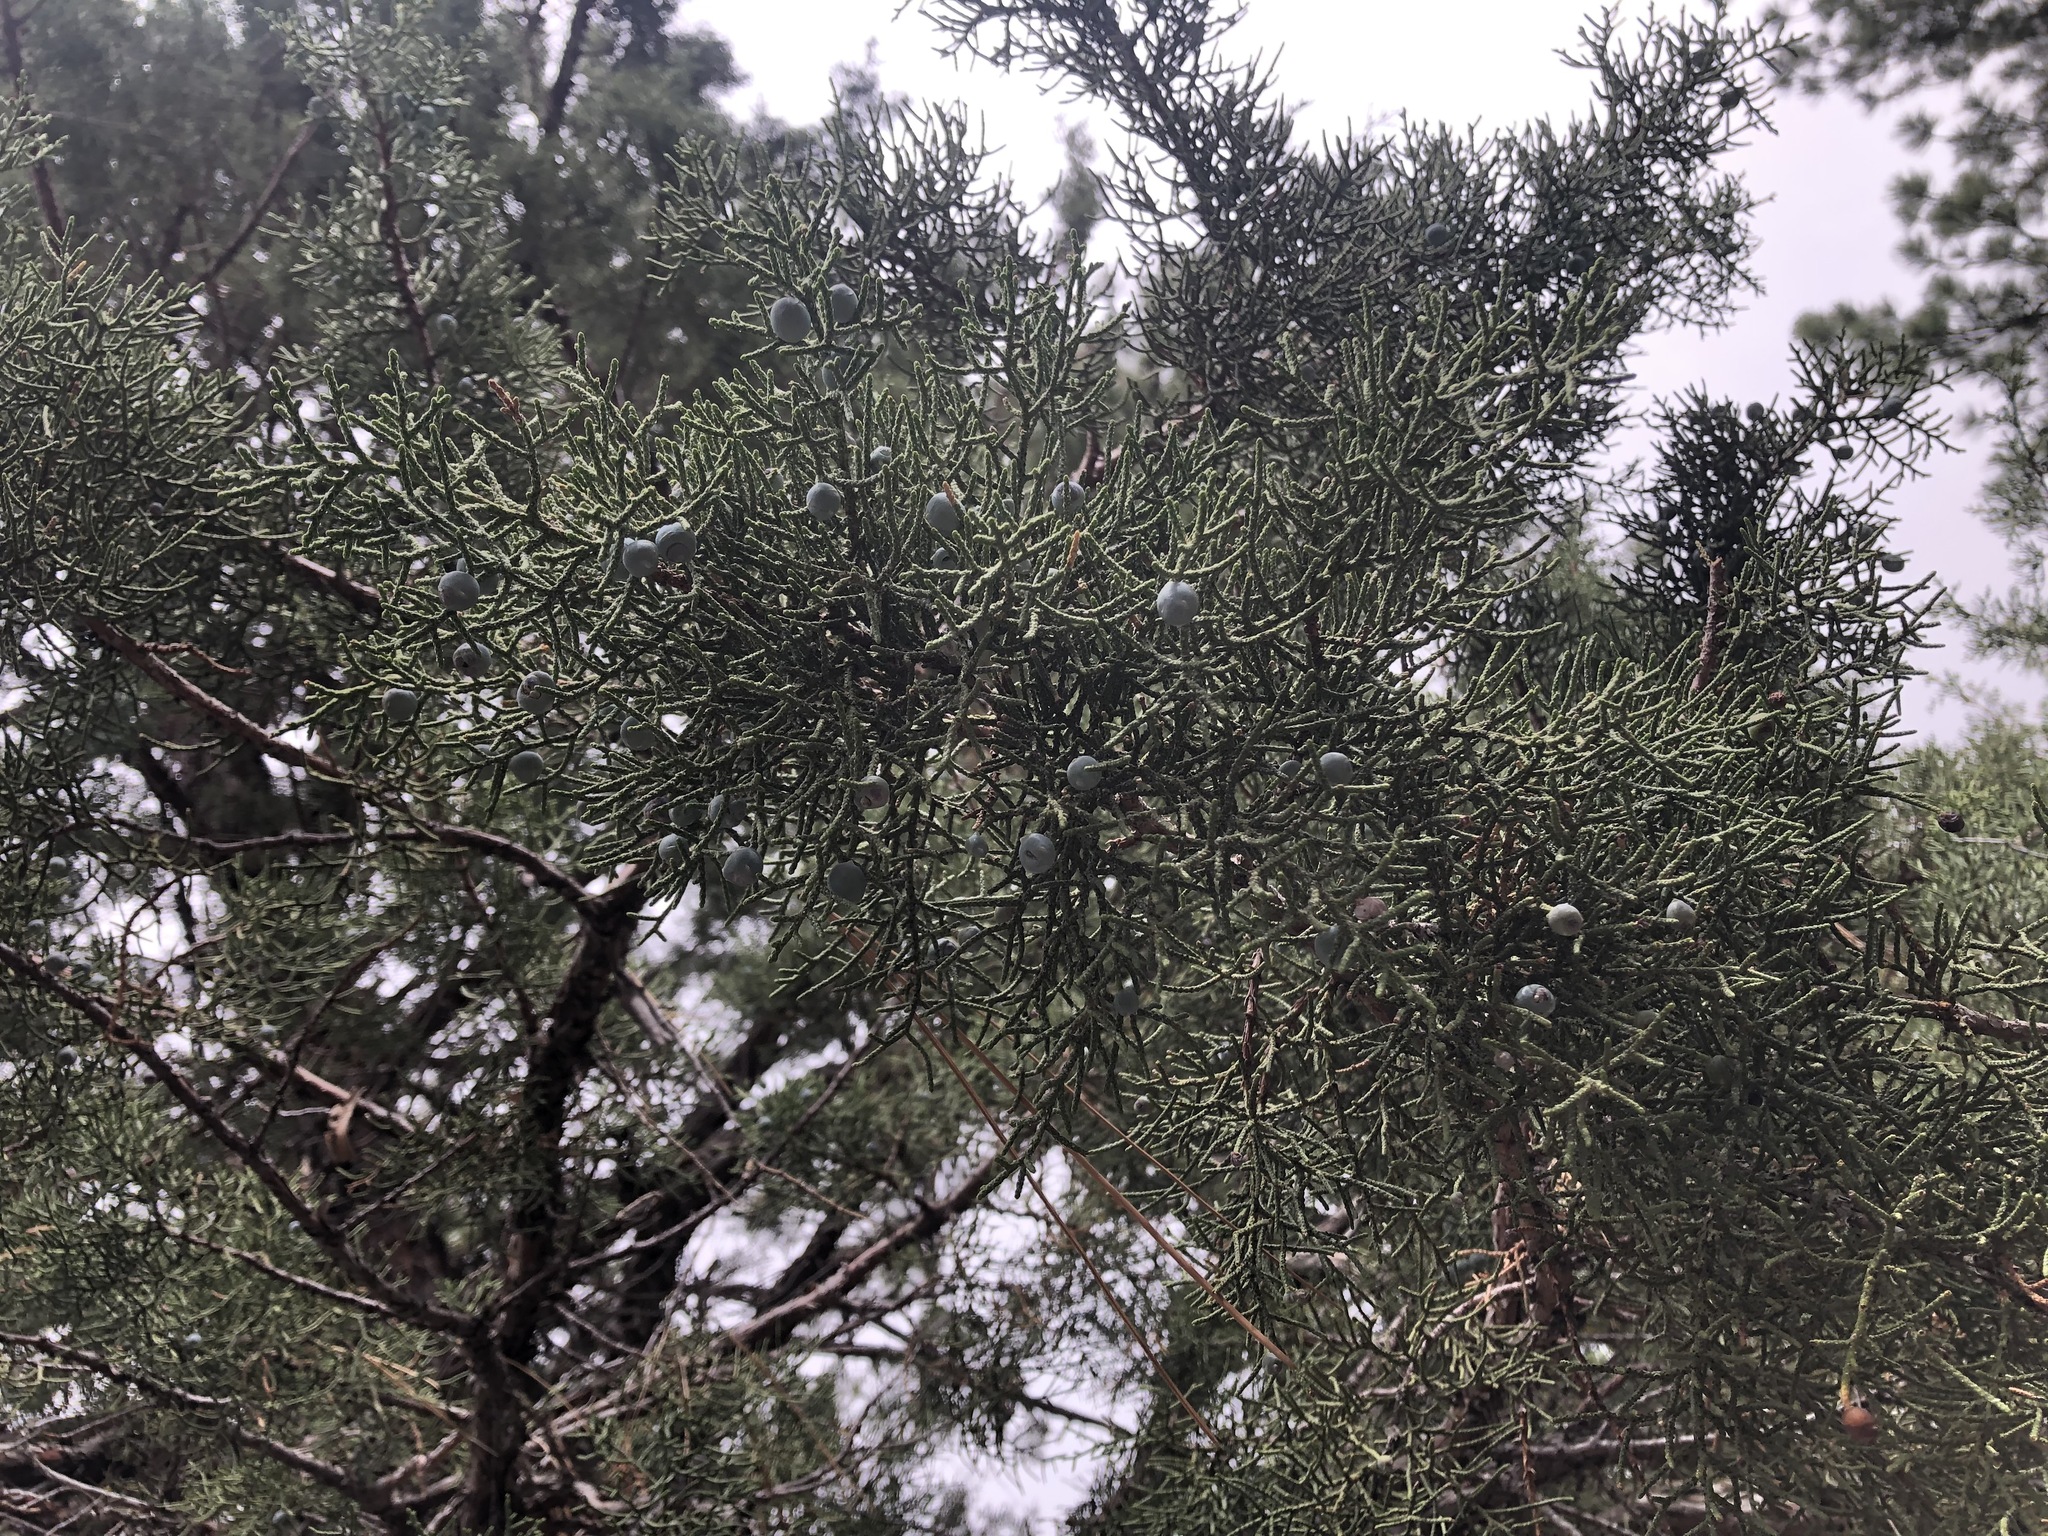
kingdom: Plantae
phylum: Tracheophyta
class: Pinopsida
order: Pinales
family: Cupressaceae
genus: Juniperus
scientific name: Juniperus occidentalis
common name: Western juniper
